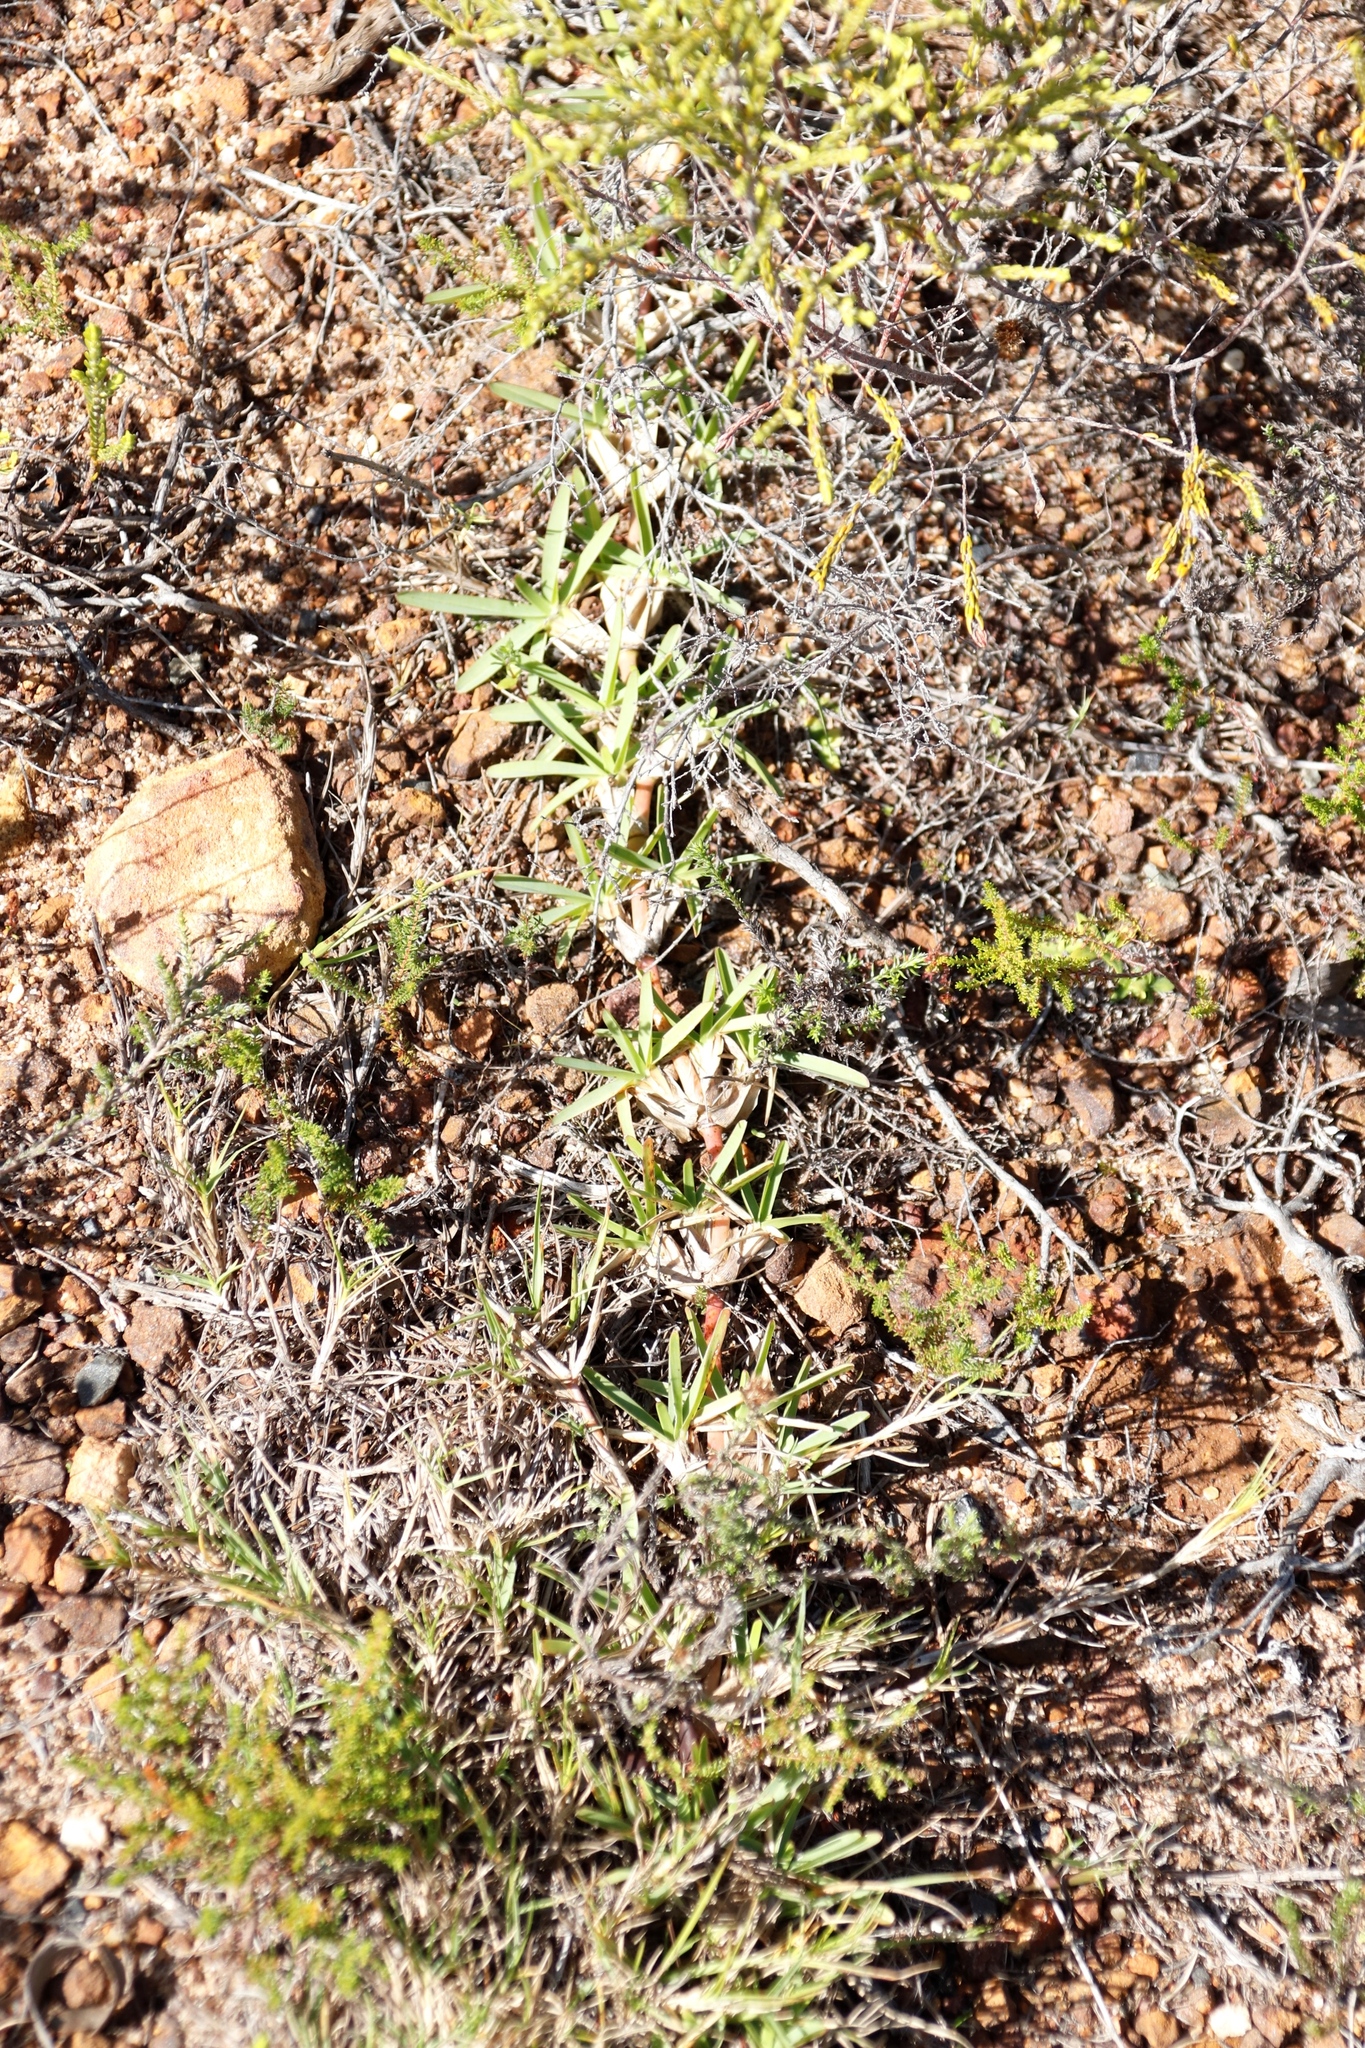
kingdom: Plantae
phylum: Tracheophyta
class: Liliopsida
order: Poales
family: Poaceae
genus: Stenotaphrum
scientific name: Stenotaphrum secundatum
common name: St. augustine grass
